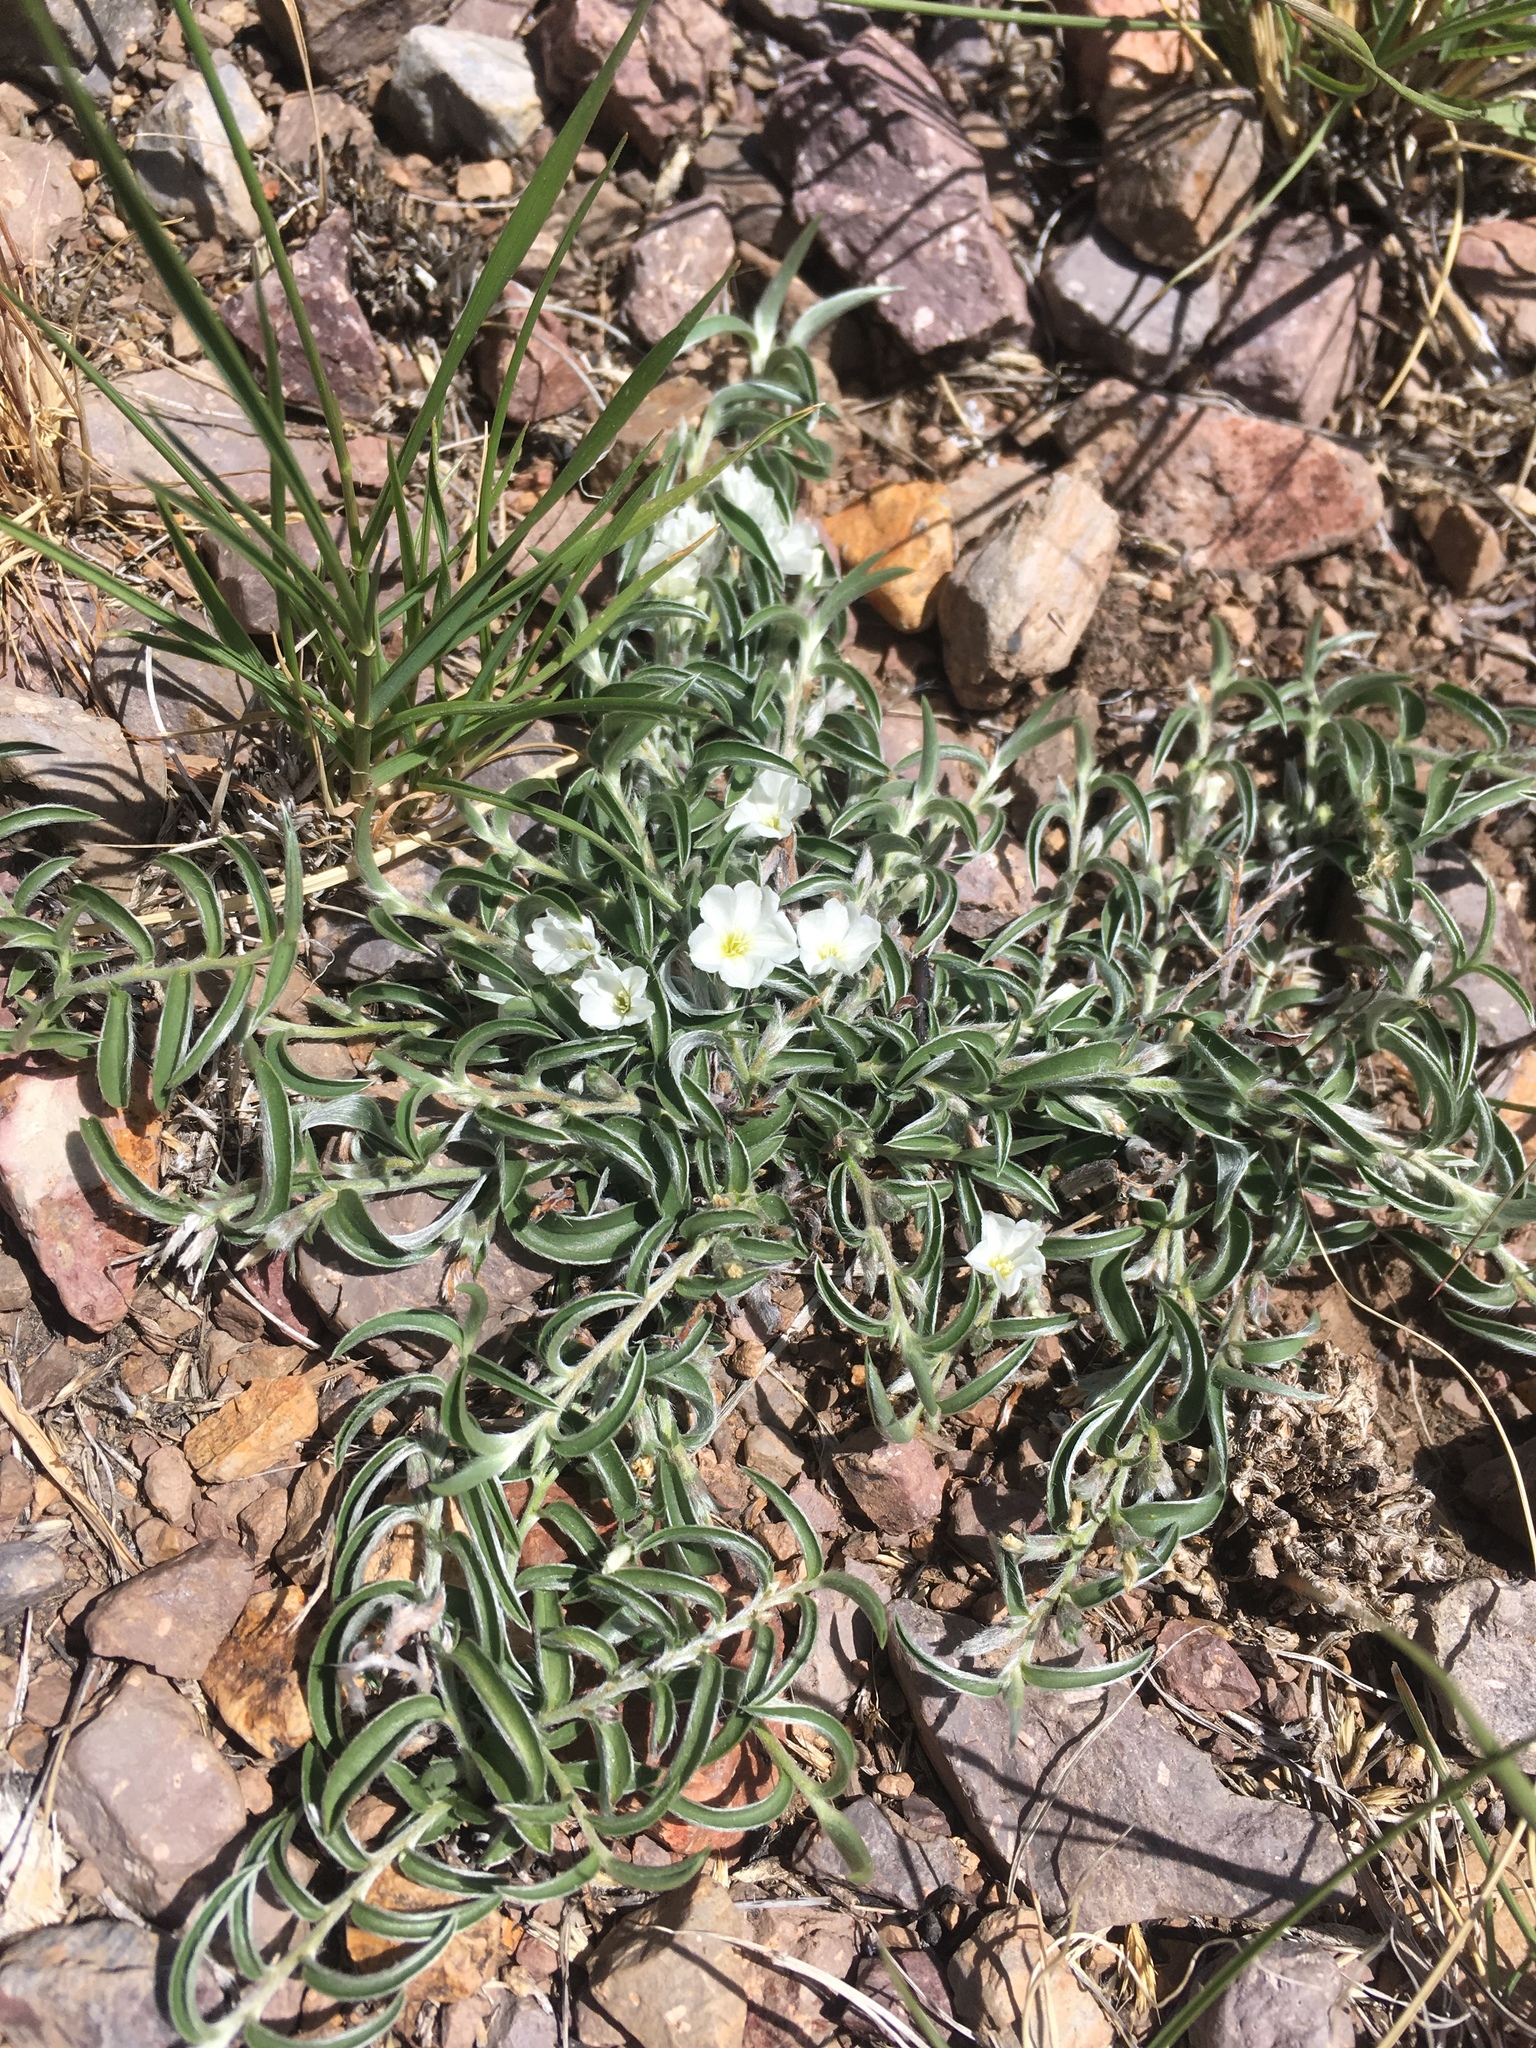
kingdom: Plantae
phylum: Tracheophyta
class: Magnoliopsida
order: Solanales
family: Convolvulaceae
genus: Evolvulus
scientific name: Evolvulus sericeus
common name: Blue dots
